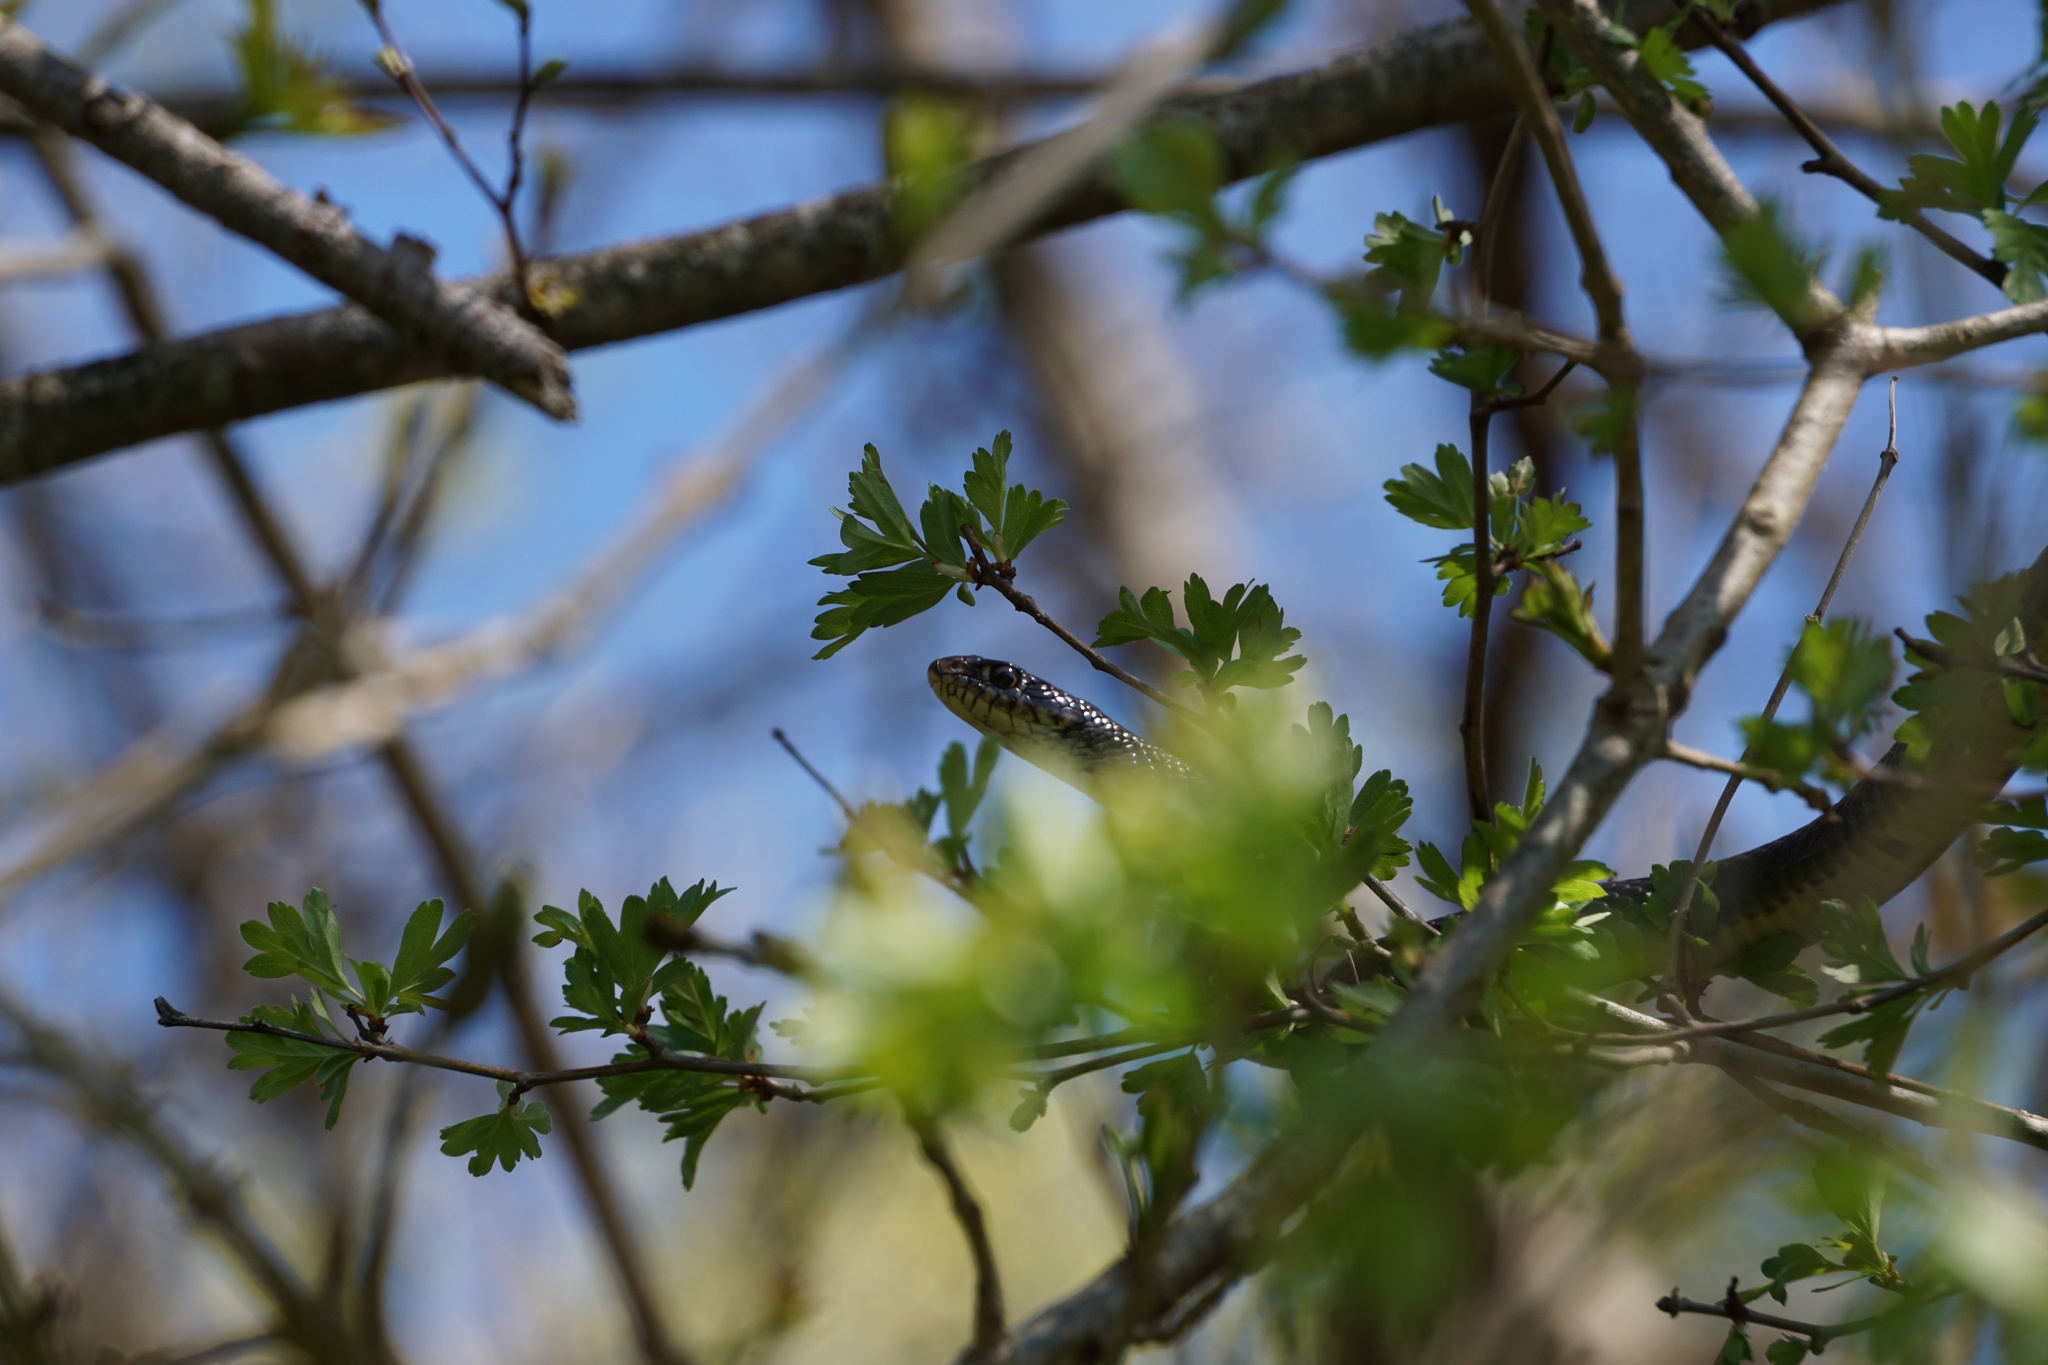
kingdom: Animalia
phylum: Chordata
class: Squamata
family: Colubridae
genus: Hierophis
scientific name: Hierophis viridiflavus
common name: Green whip snake
